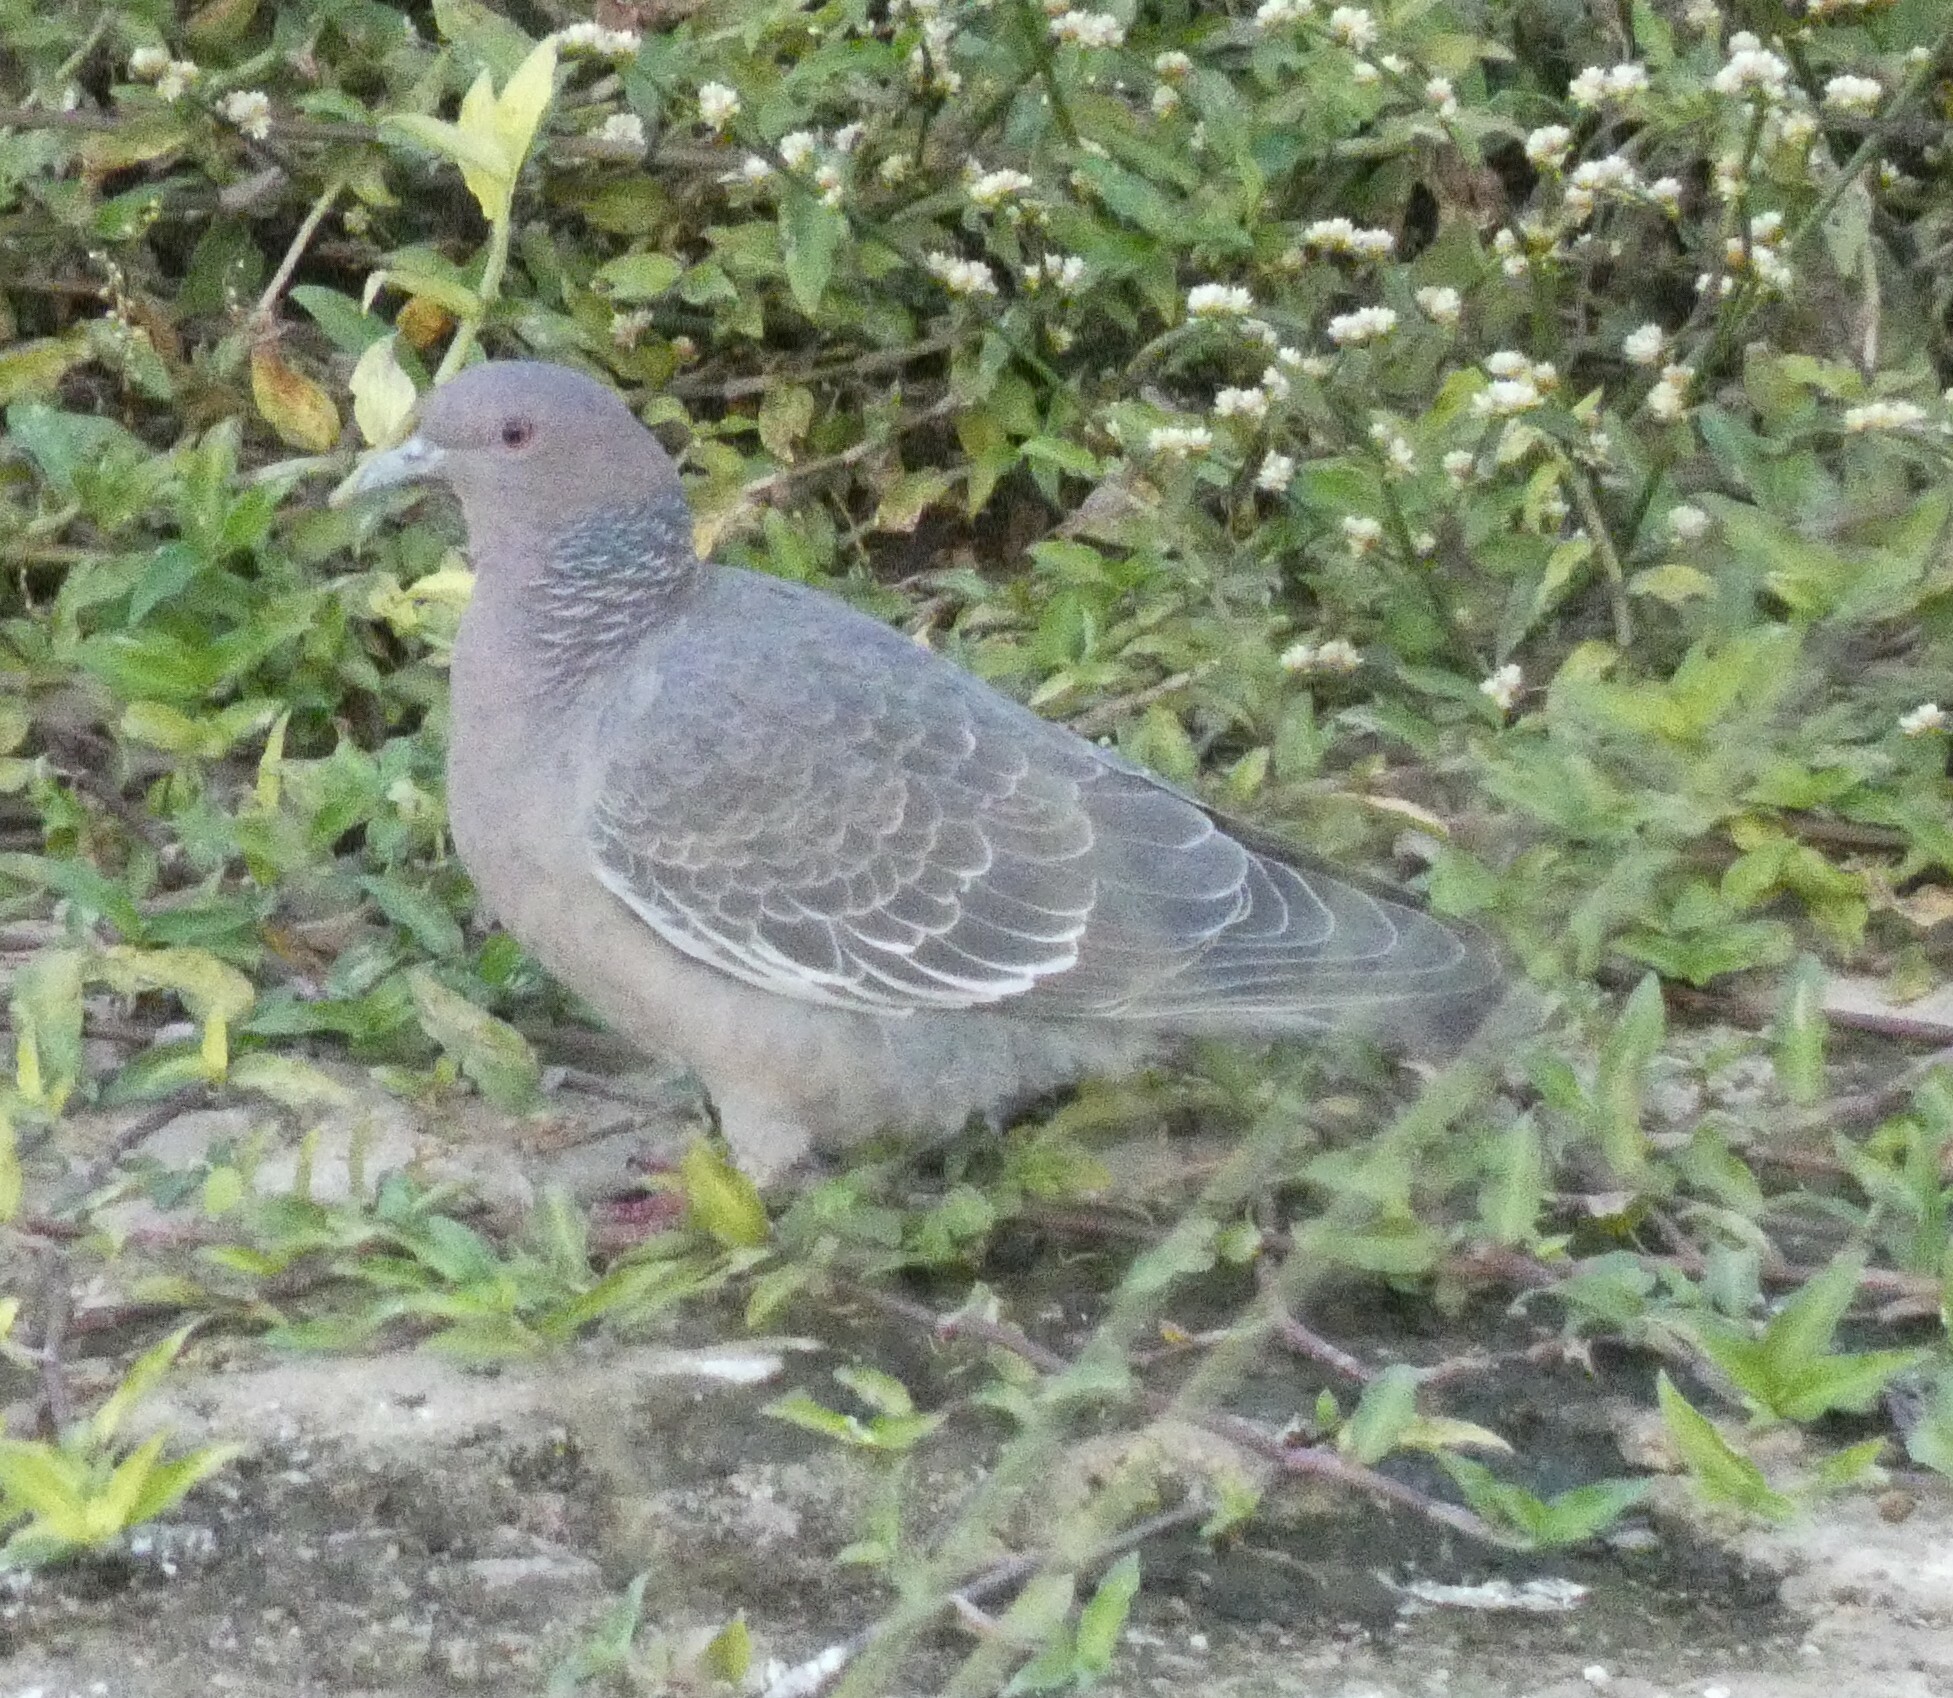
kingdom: Animalia
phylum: Chordata
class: Aves
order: Columbiformes
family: Columbidae
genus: Patagioenas
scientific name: Patagioenas picazuro
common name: Picazuro pigeon
